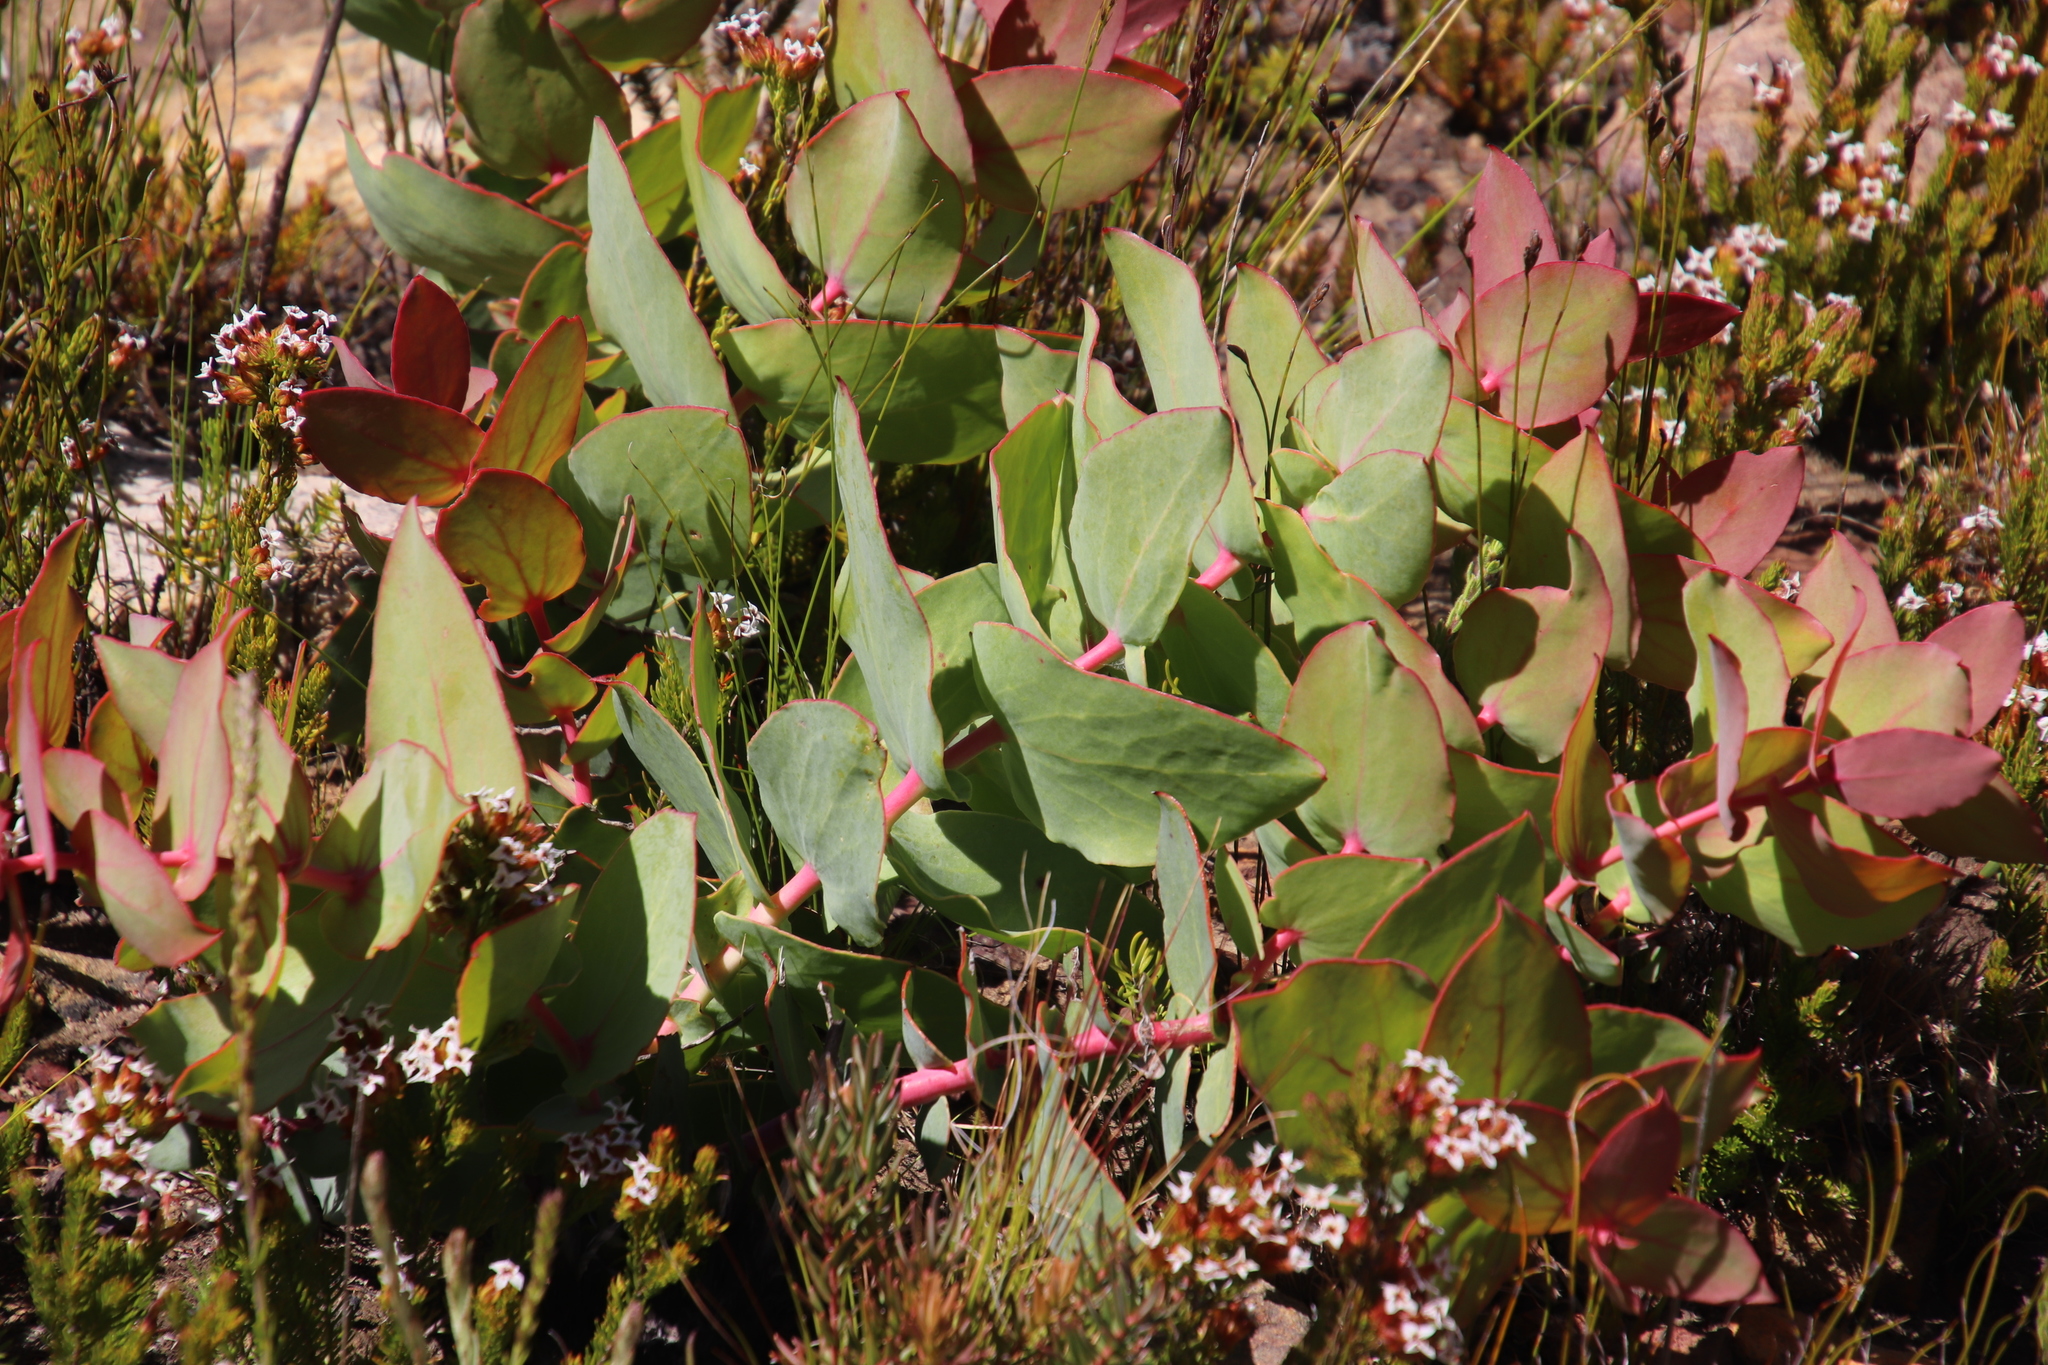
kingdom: Plantae
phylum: Tracheophyta
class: Magnoliopsida
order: Proteales
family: Proteaceae
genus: Protea
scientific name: Protea amplexicaulis
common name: Clasping-leaf sugarbush
